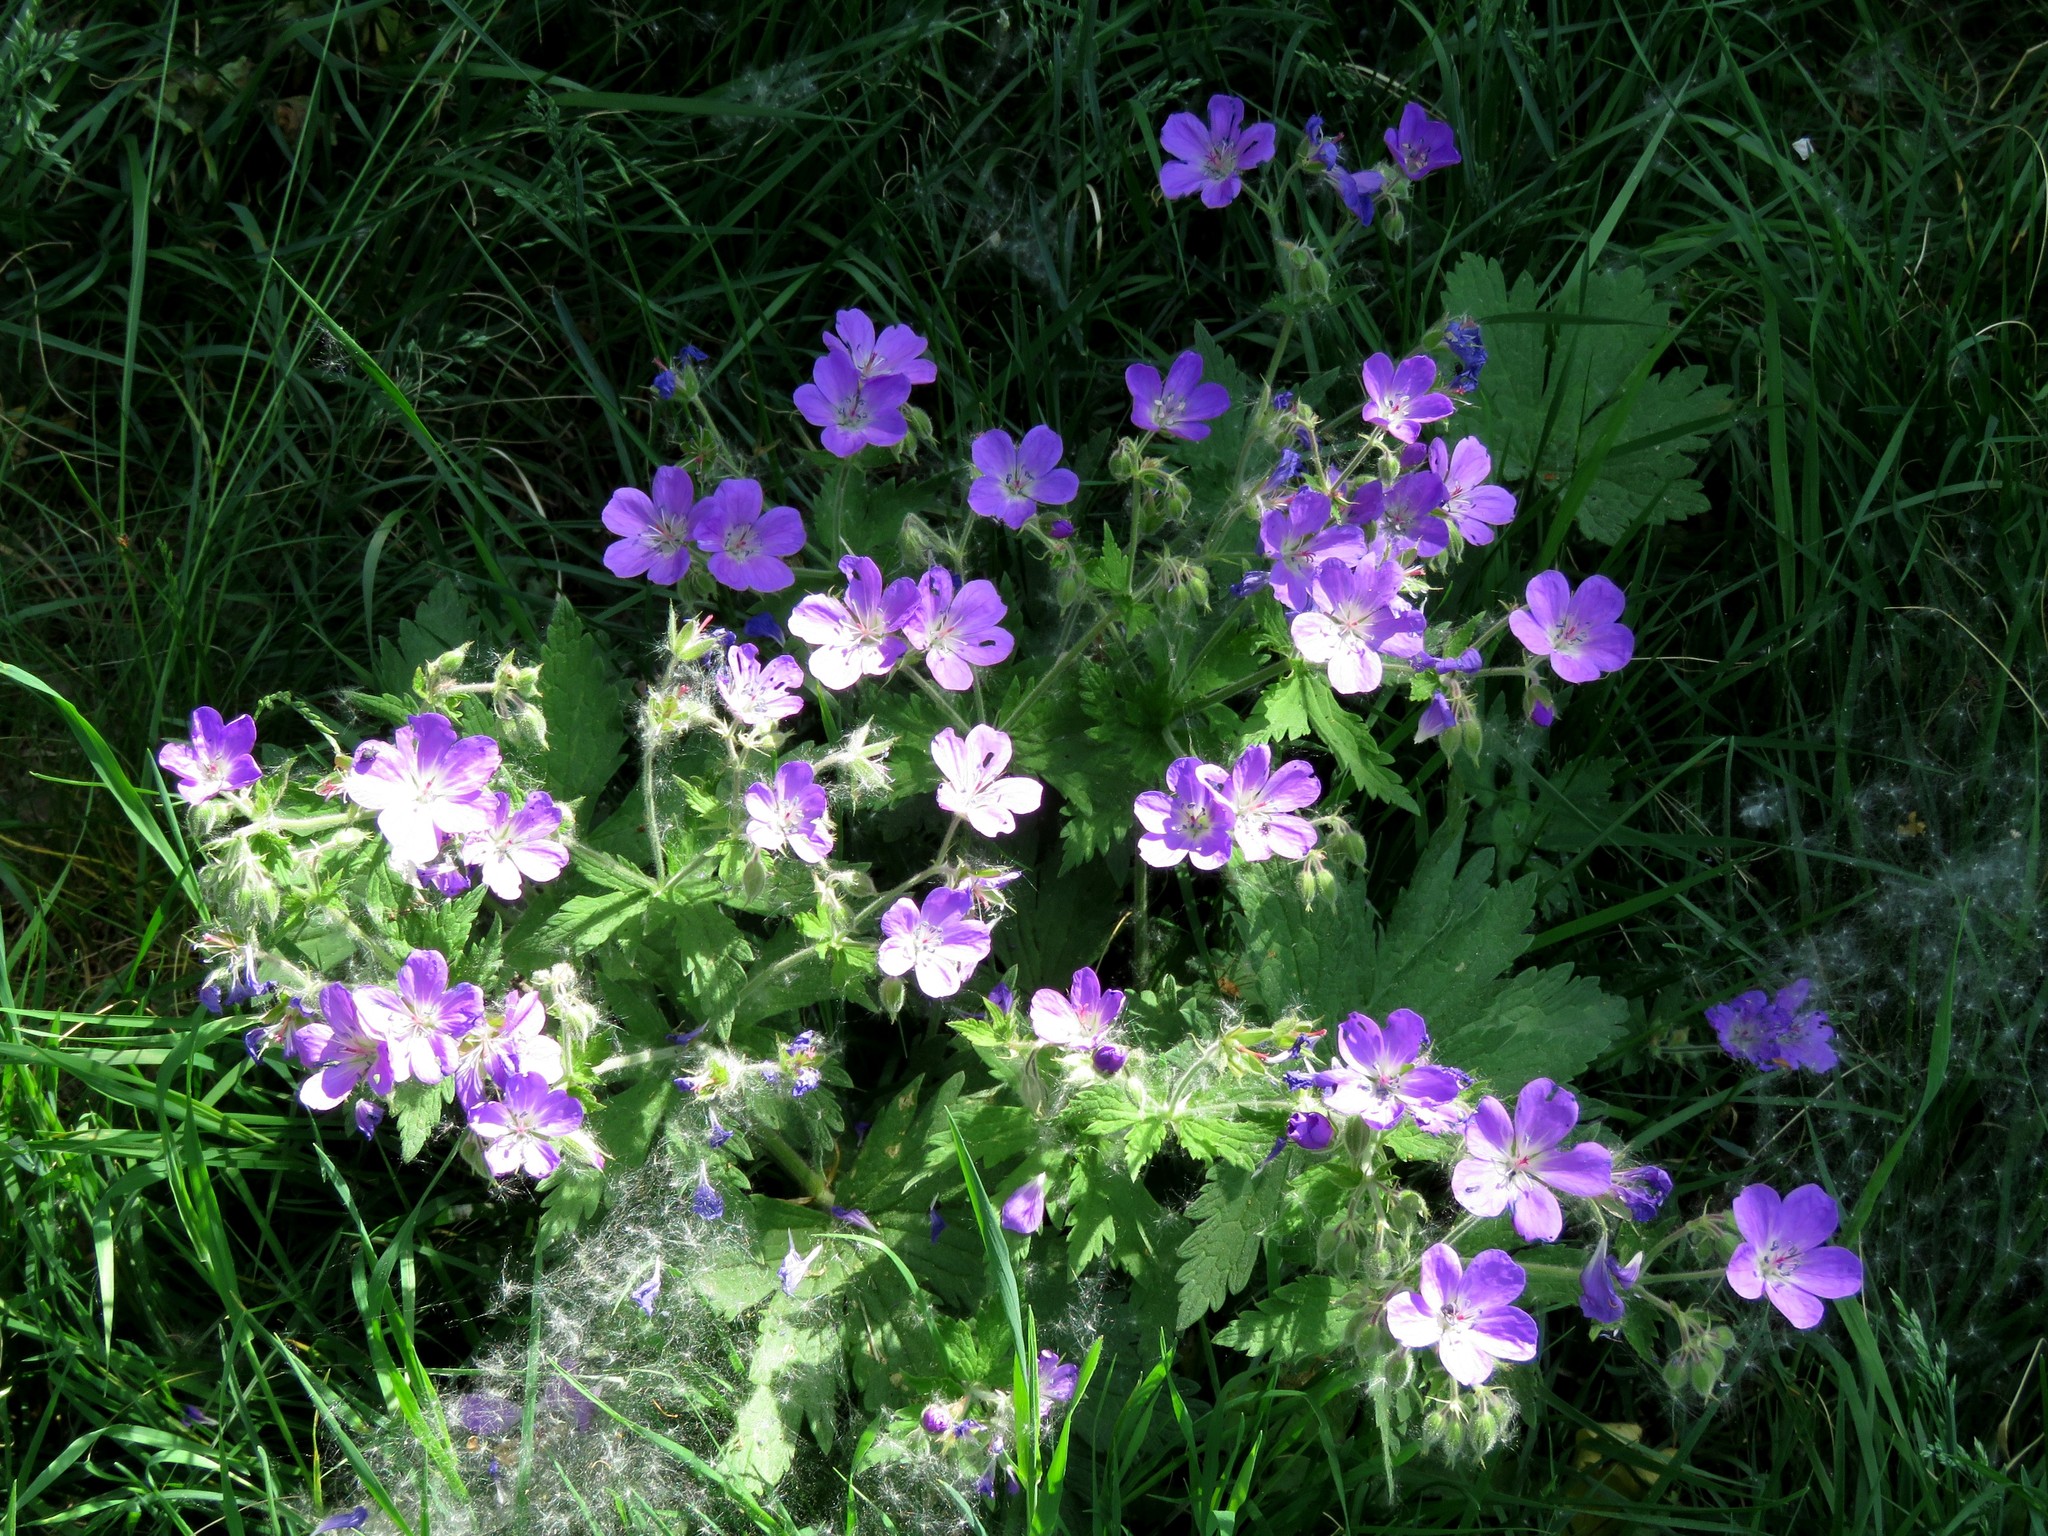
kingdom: Plantae
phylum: Tracheophyta
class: Magnoliopsida
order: Geraniales
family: Geraniaceae
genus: Geranium
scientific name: Geranium sylvaticum
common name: Wood crane's-bill
